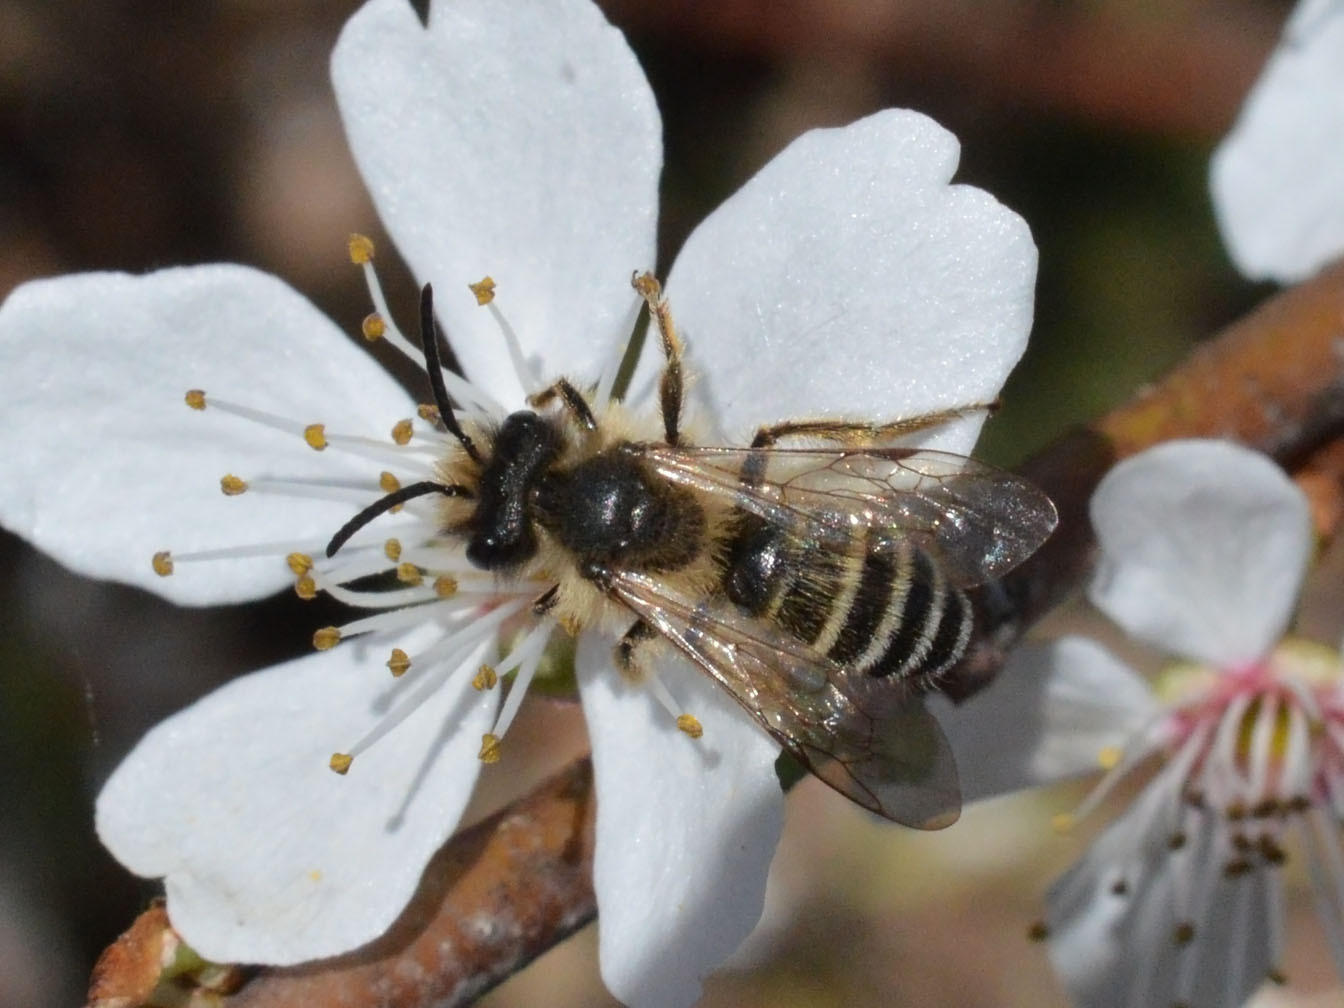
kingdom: Animalia
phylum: Arthropoda
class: Insecta
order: Hymenoptera
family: Andrenidae
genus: Andrena
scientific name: Andrena flavipes
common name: Yellow-legged mining bee
